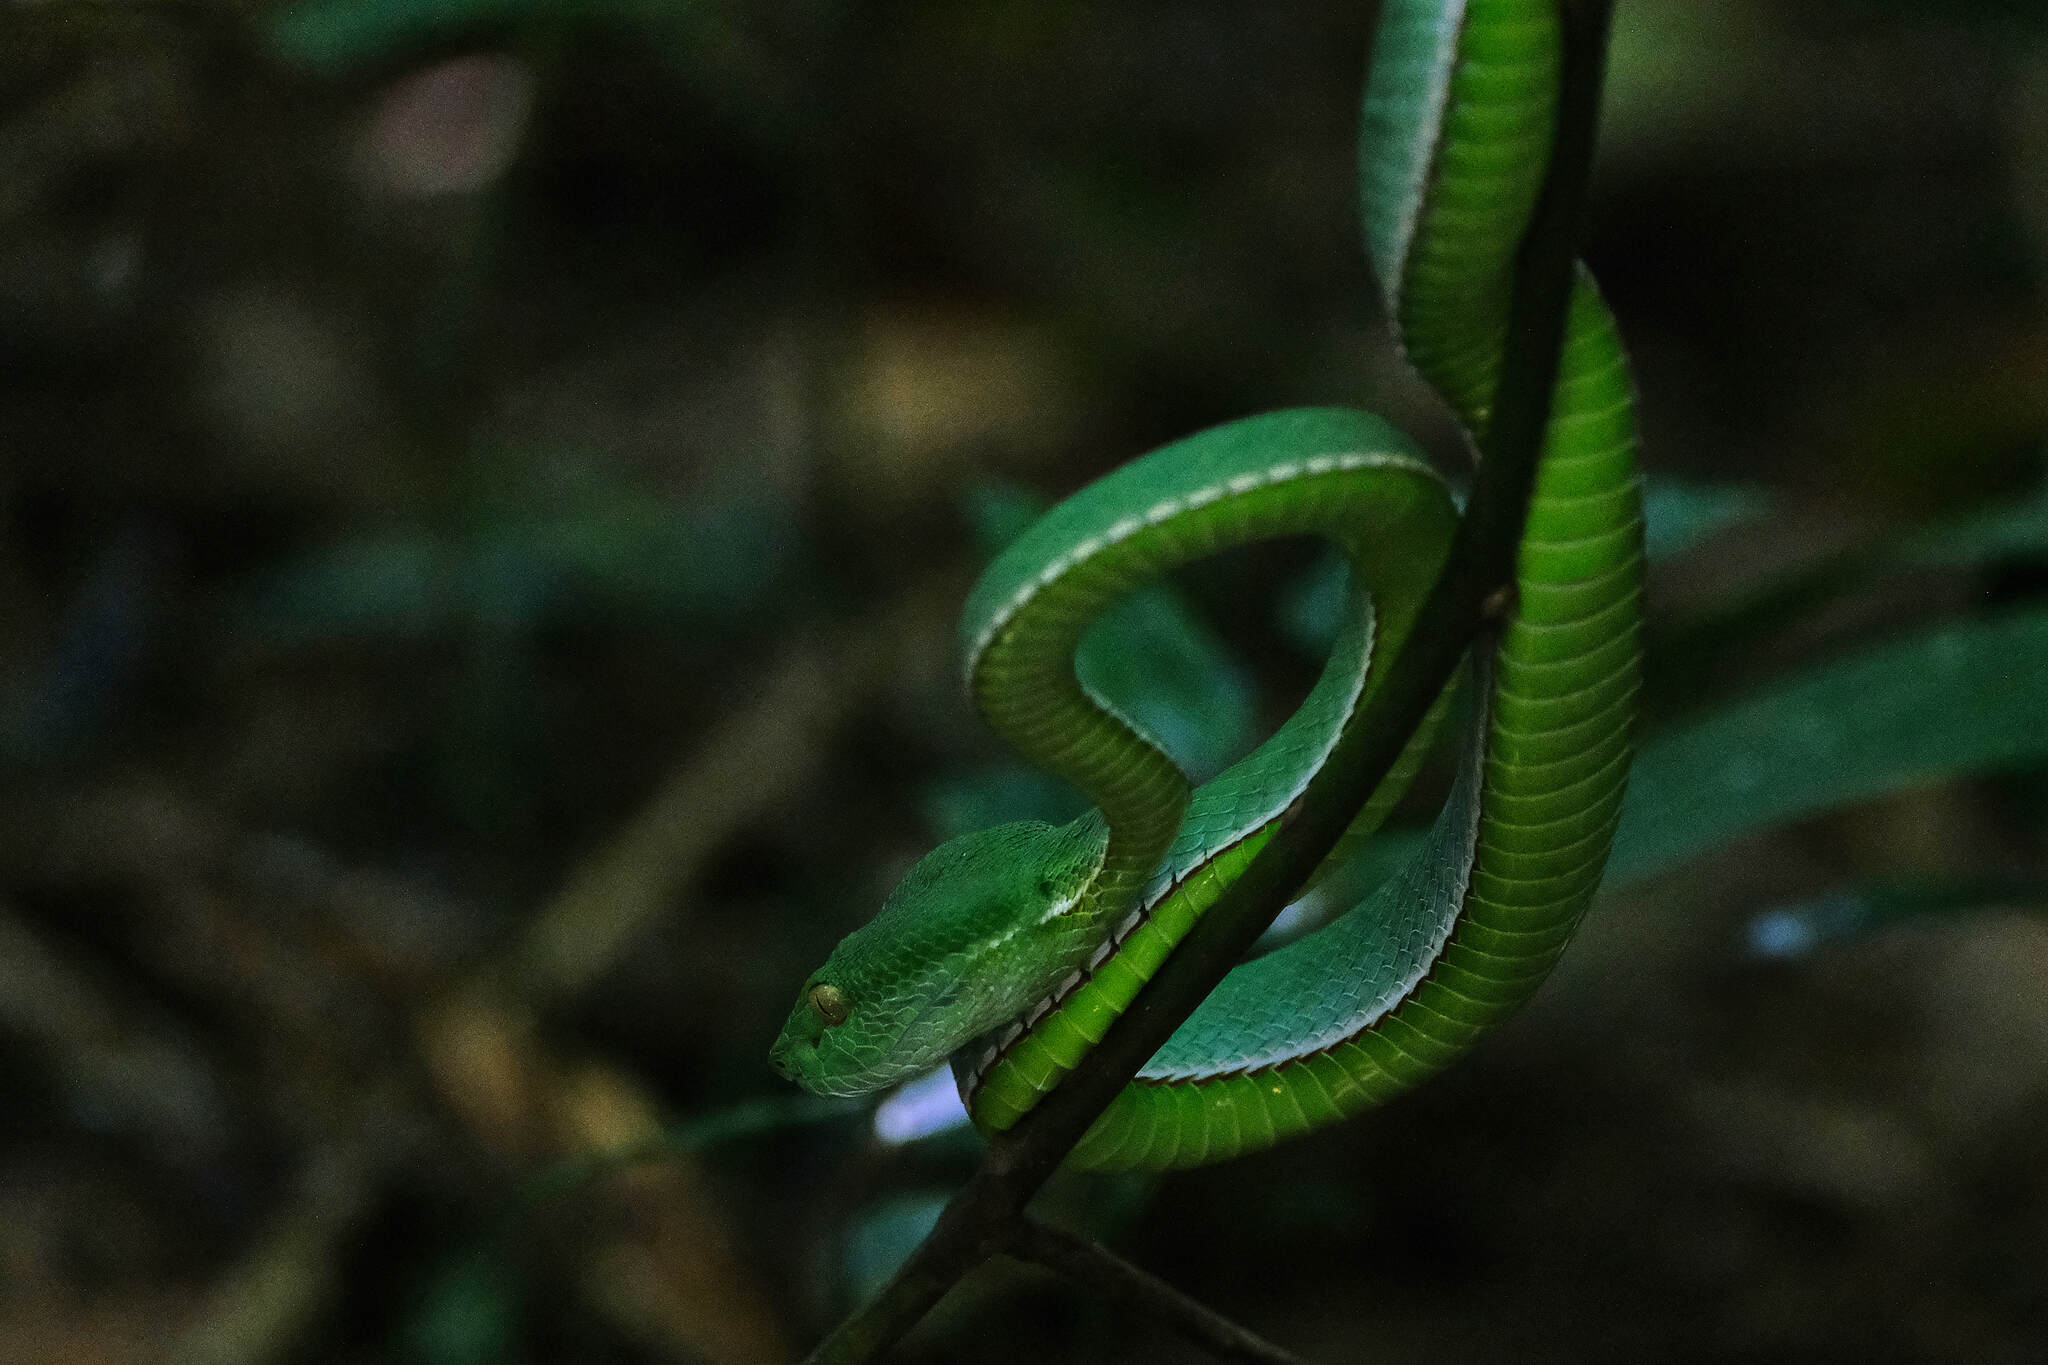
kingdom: Animalia
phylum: Chordata
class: Squamata
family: Viperidae
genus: Trimeresurus
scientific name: Trimeresurus vogeli
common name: Vogel's pit viper
